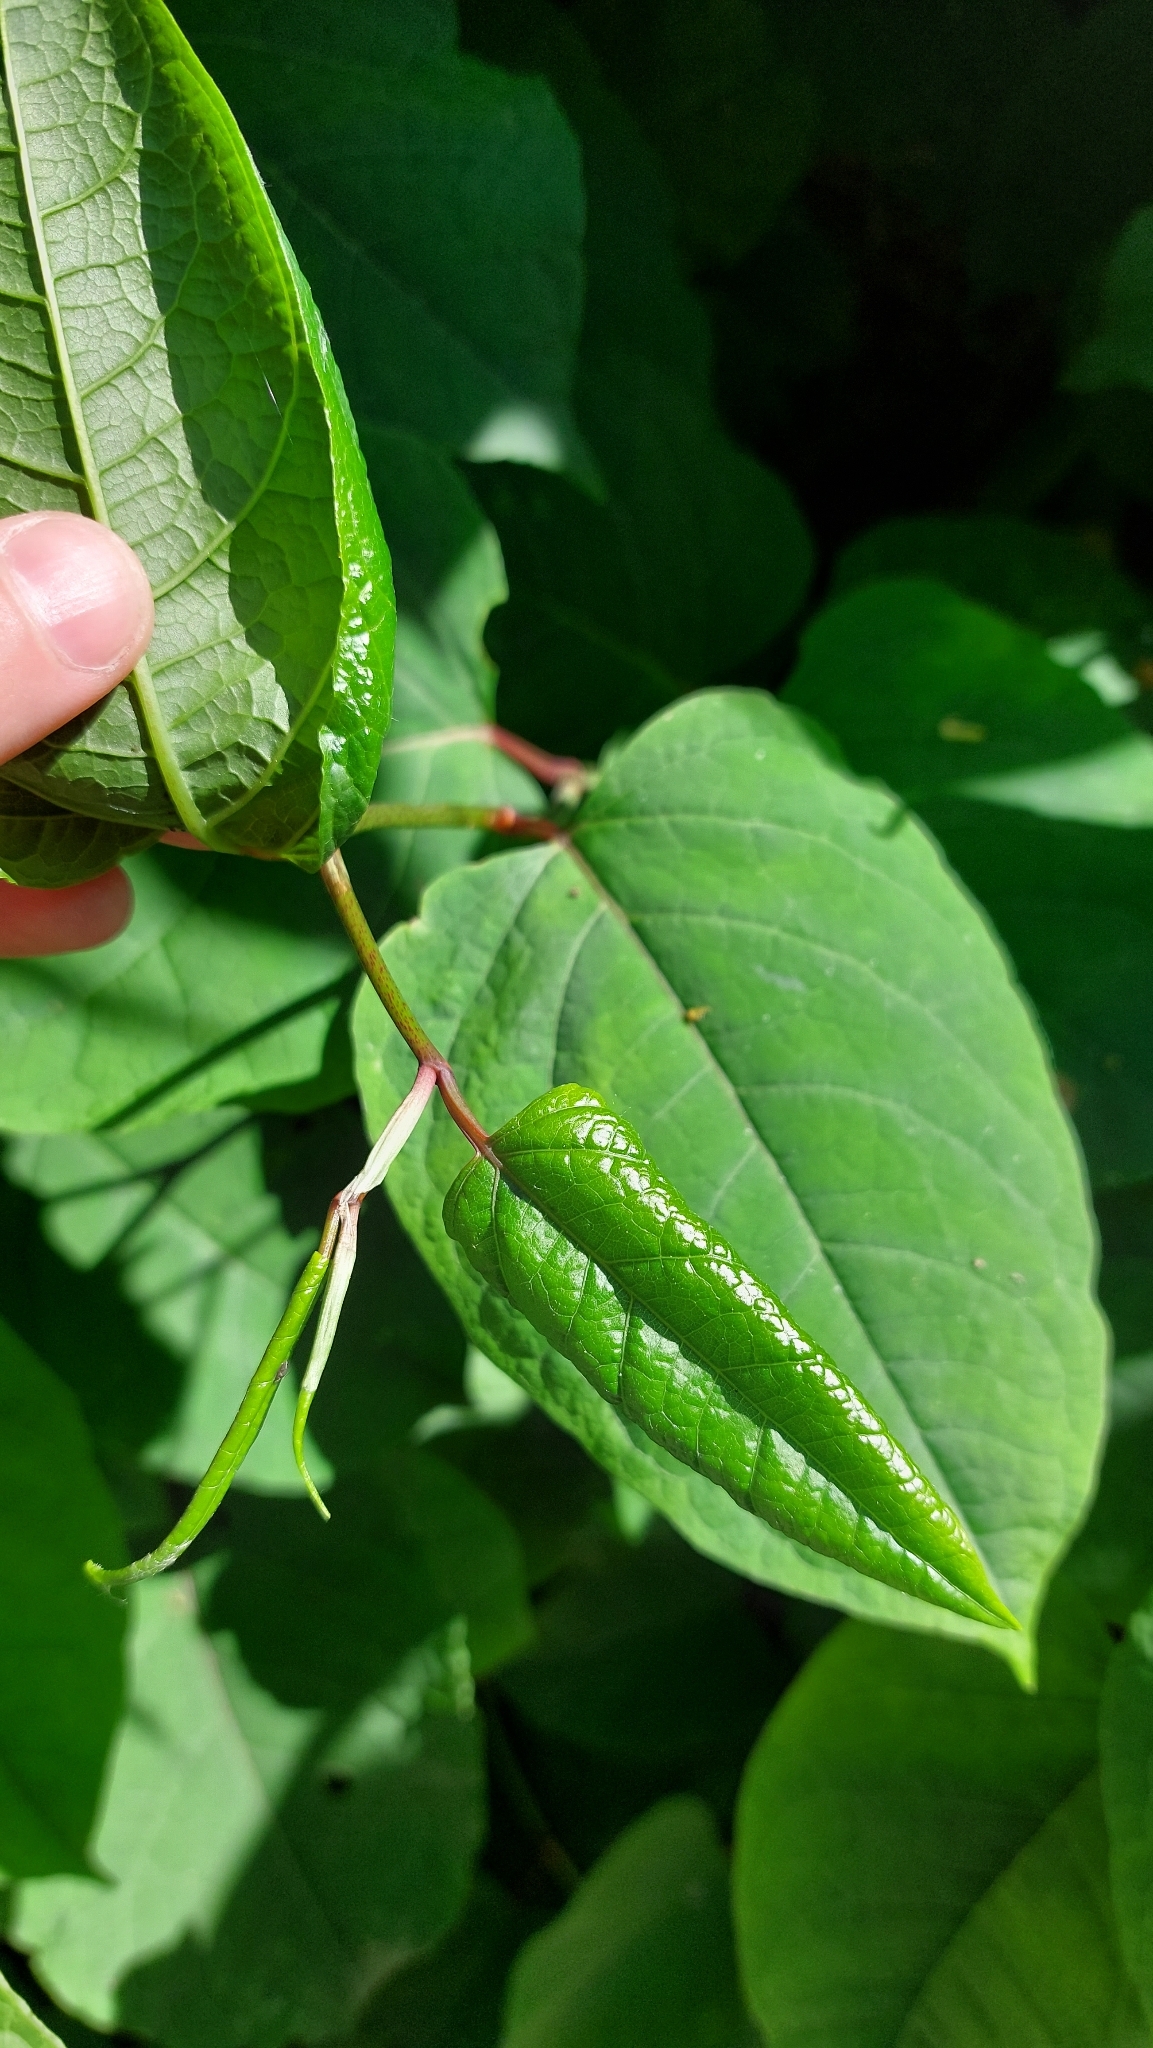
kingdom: Plantae
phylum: Tracheophyta
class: Magnoliopsida
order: Caryophyllales
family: Polygonaceae
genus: Reynoutria
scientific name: Reynoutria japonica
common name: Japanese knotweed
